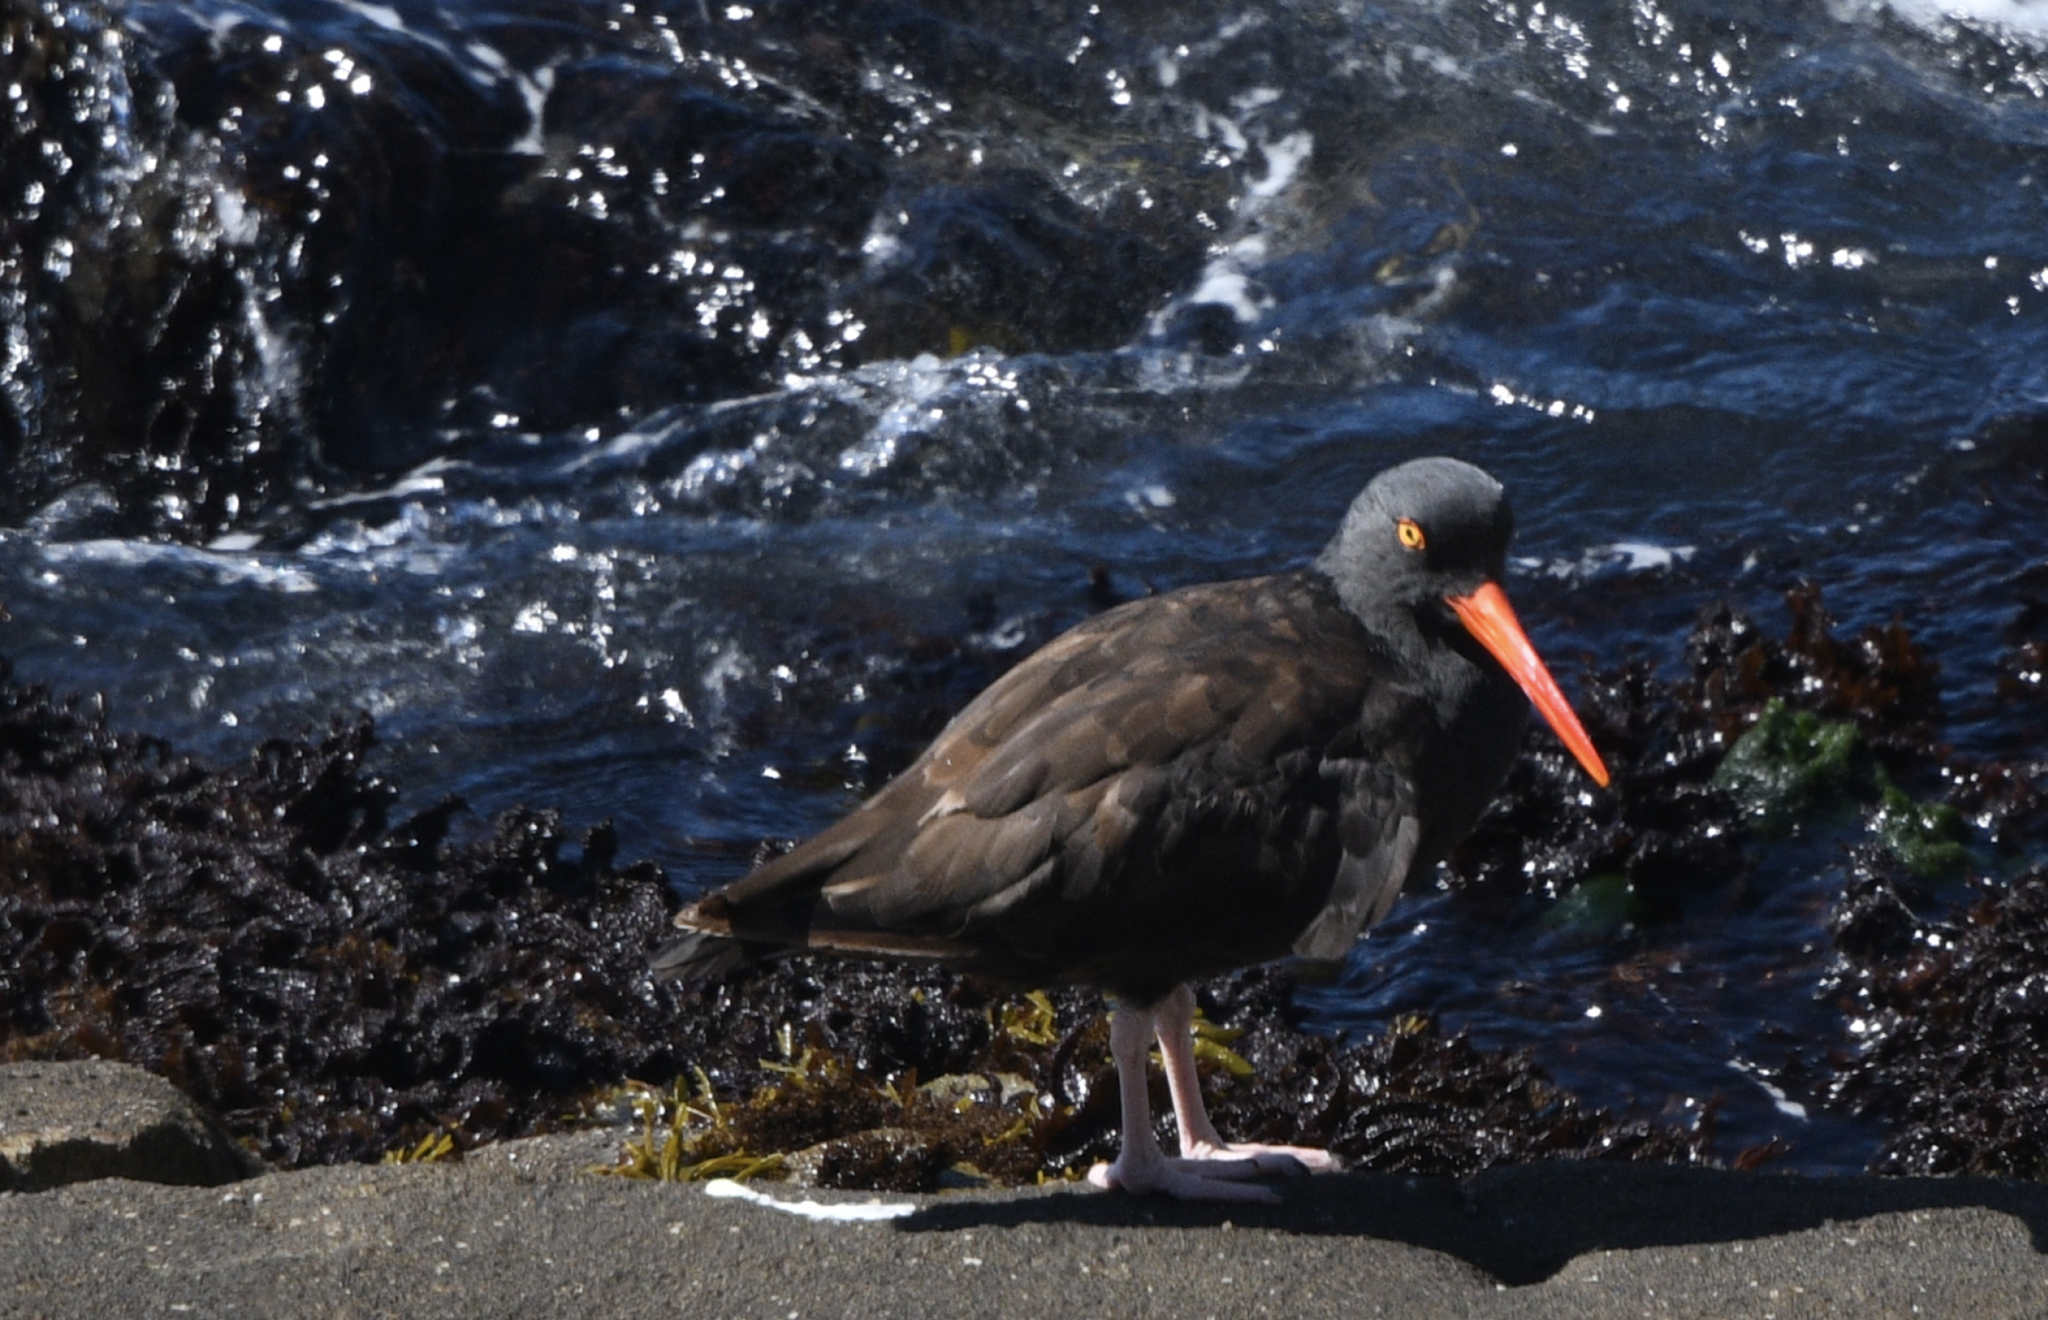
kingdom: Animalia
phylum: Chordata
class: Aves
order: Charadriiformes
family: Haematopodidae
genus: Haematopus
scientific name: Haematopus bachmani
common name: Black oystercatcher
